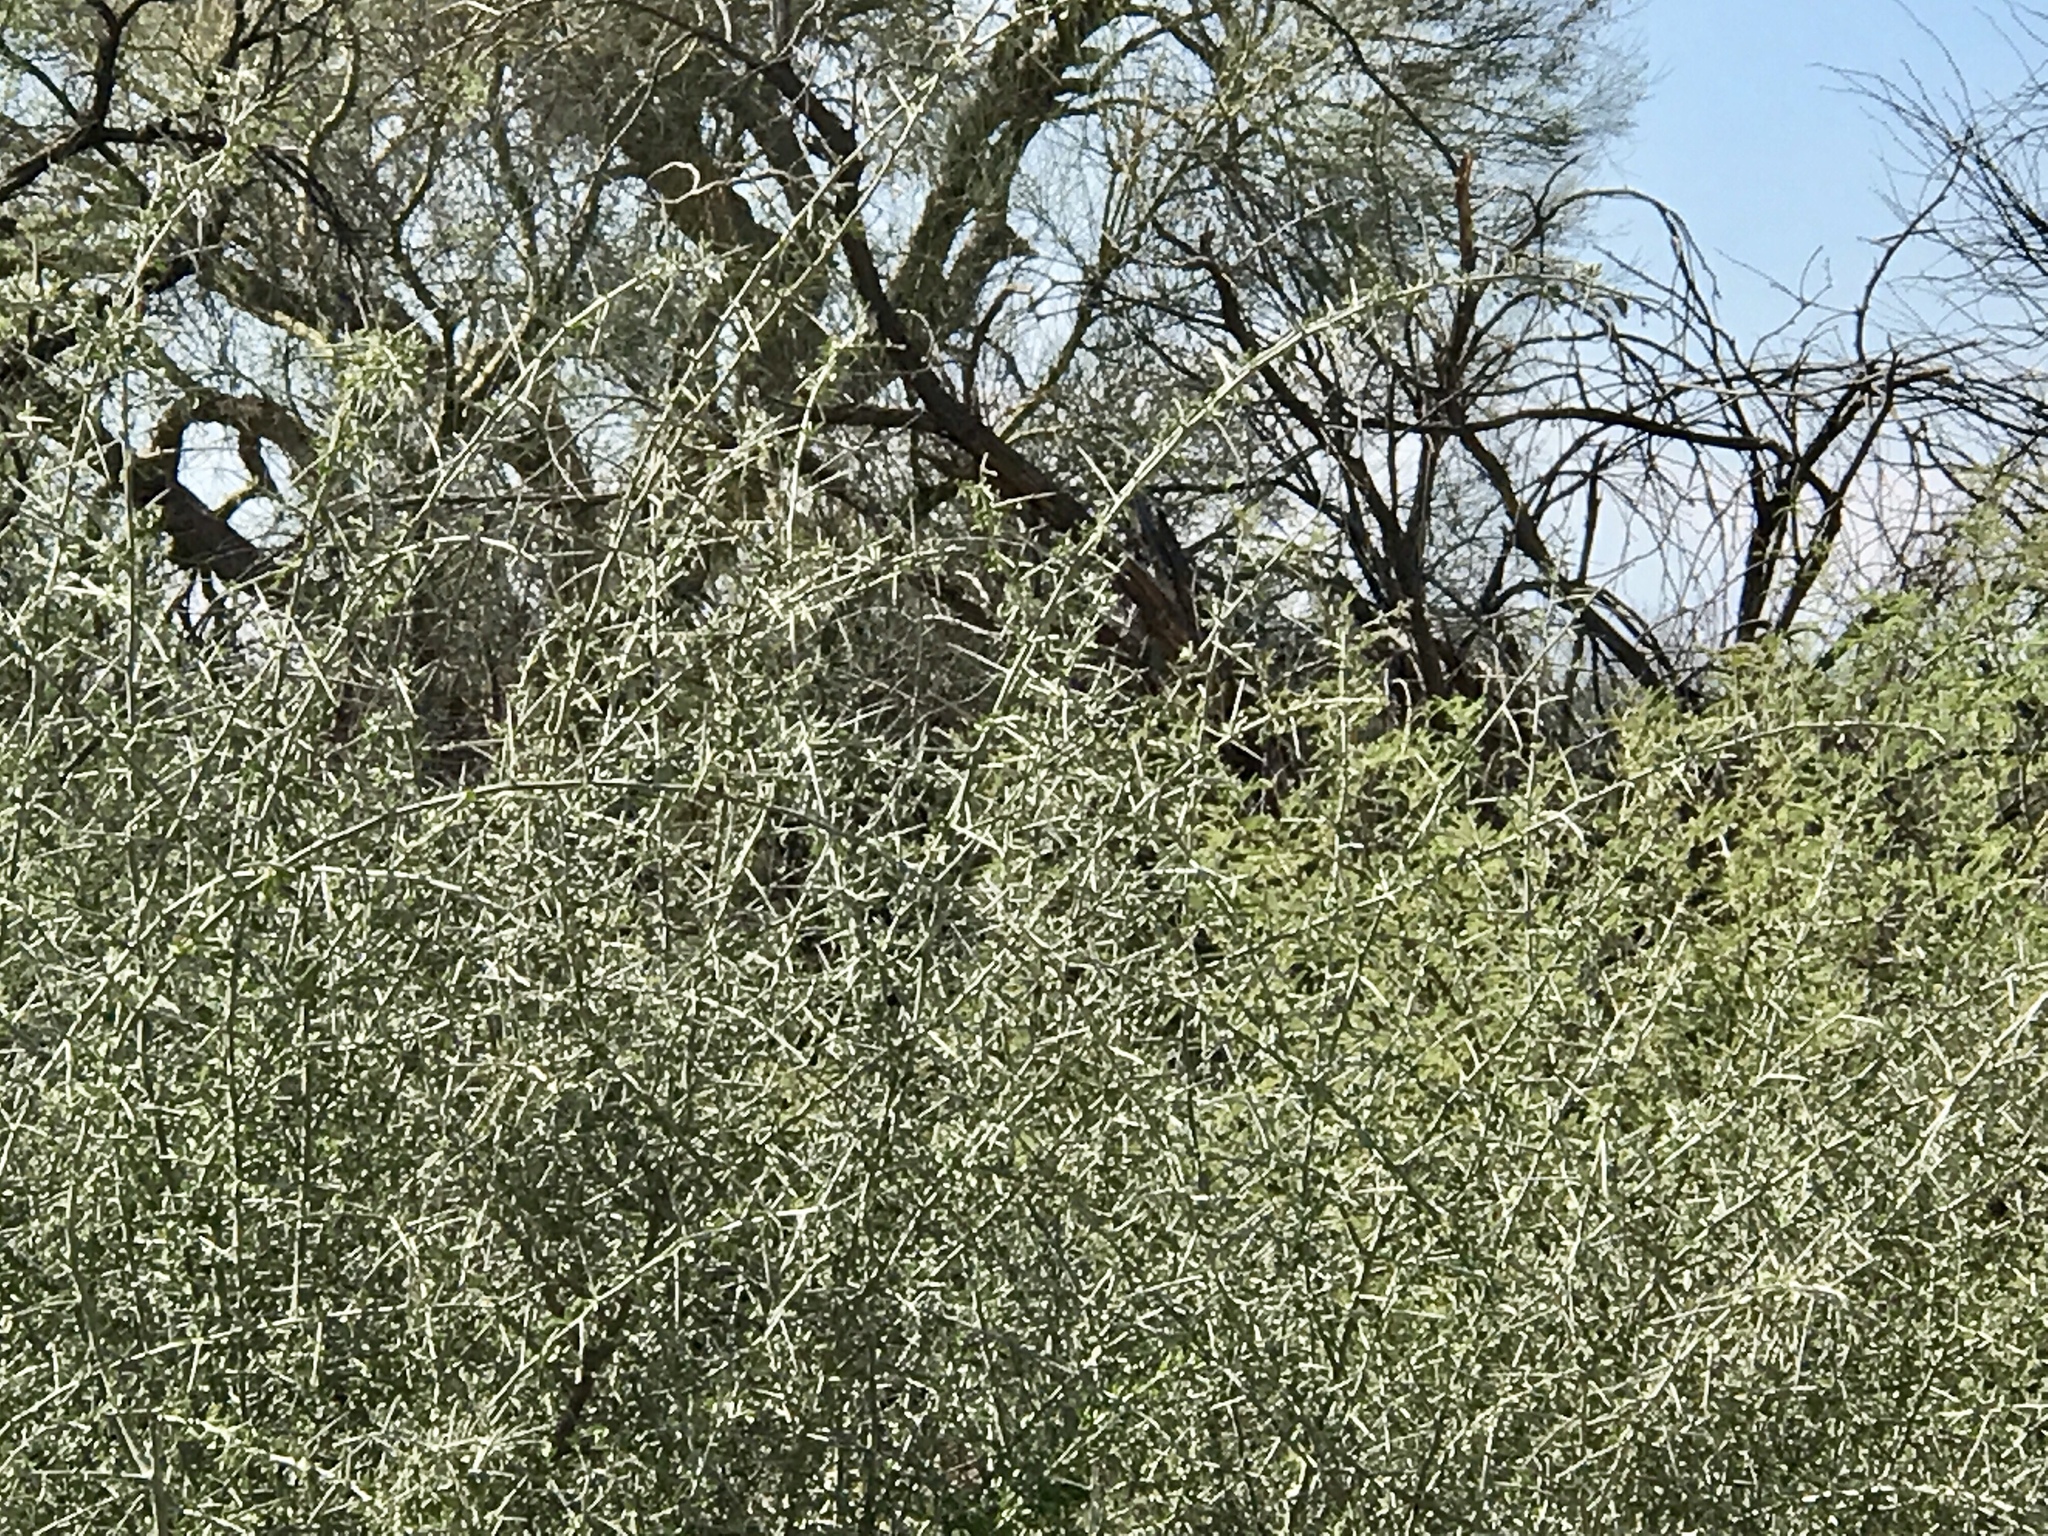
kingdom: Plantae
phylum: Tracheophyta
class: Magnoliopsida
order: Rosales
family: Rhamnaceae
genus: Sarcomphalus
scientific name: Sarcomphalus obtusifolius
